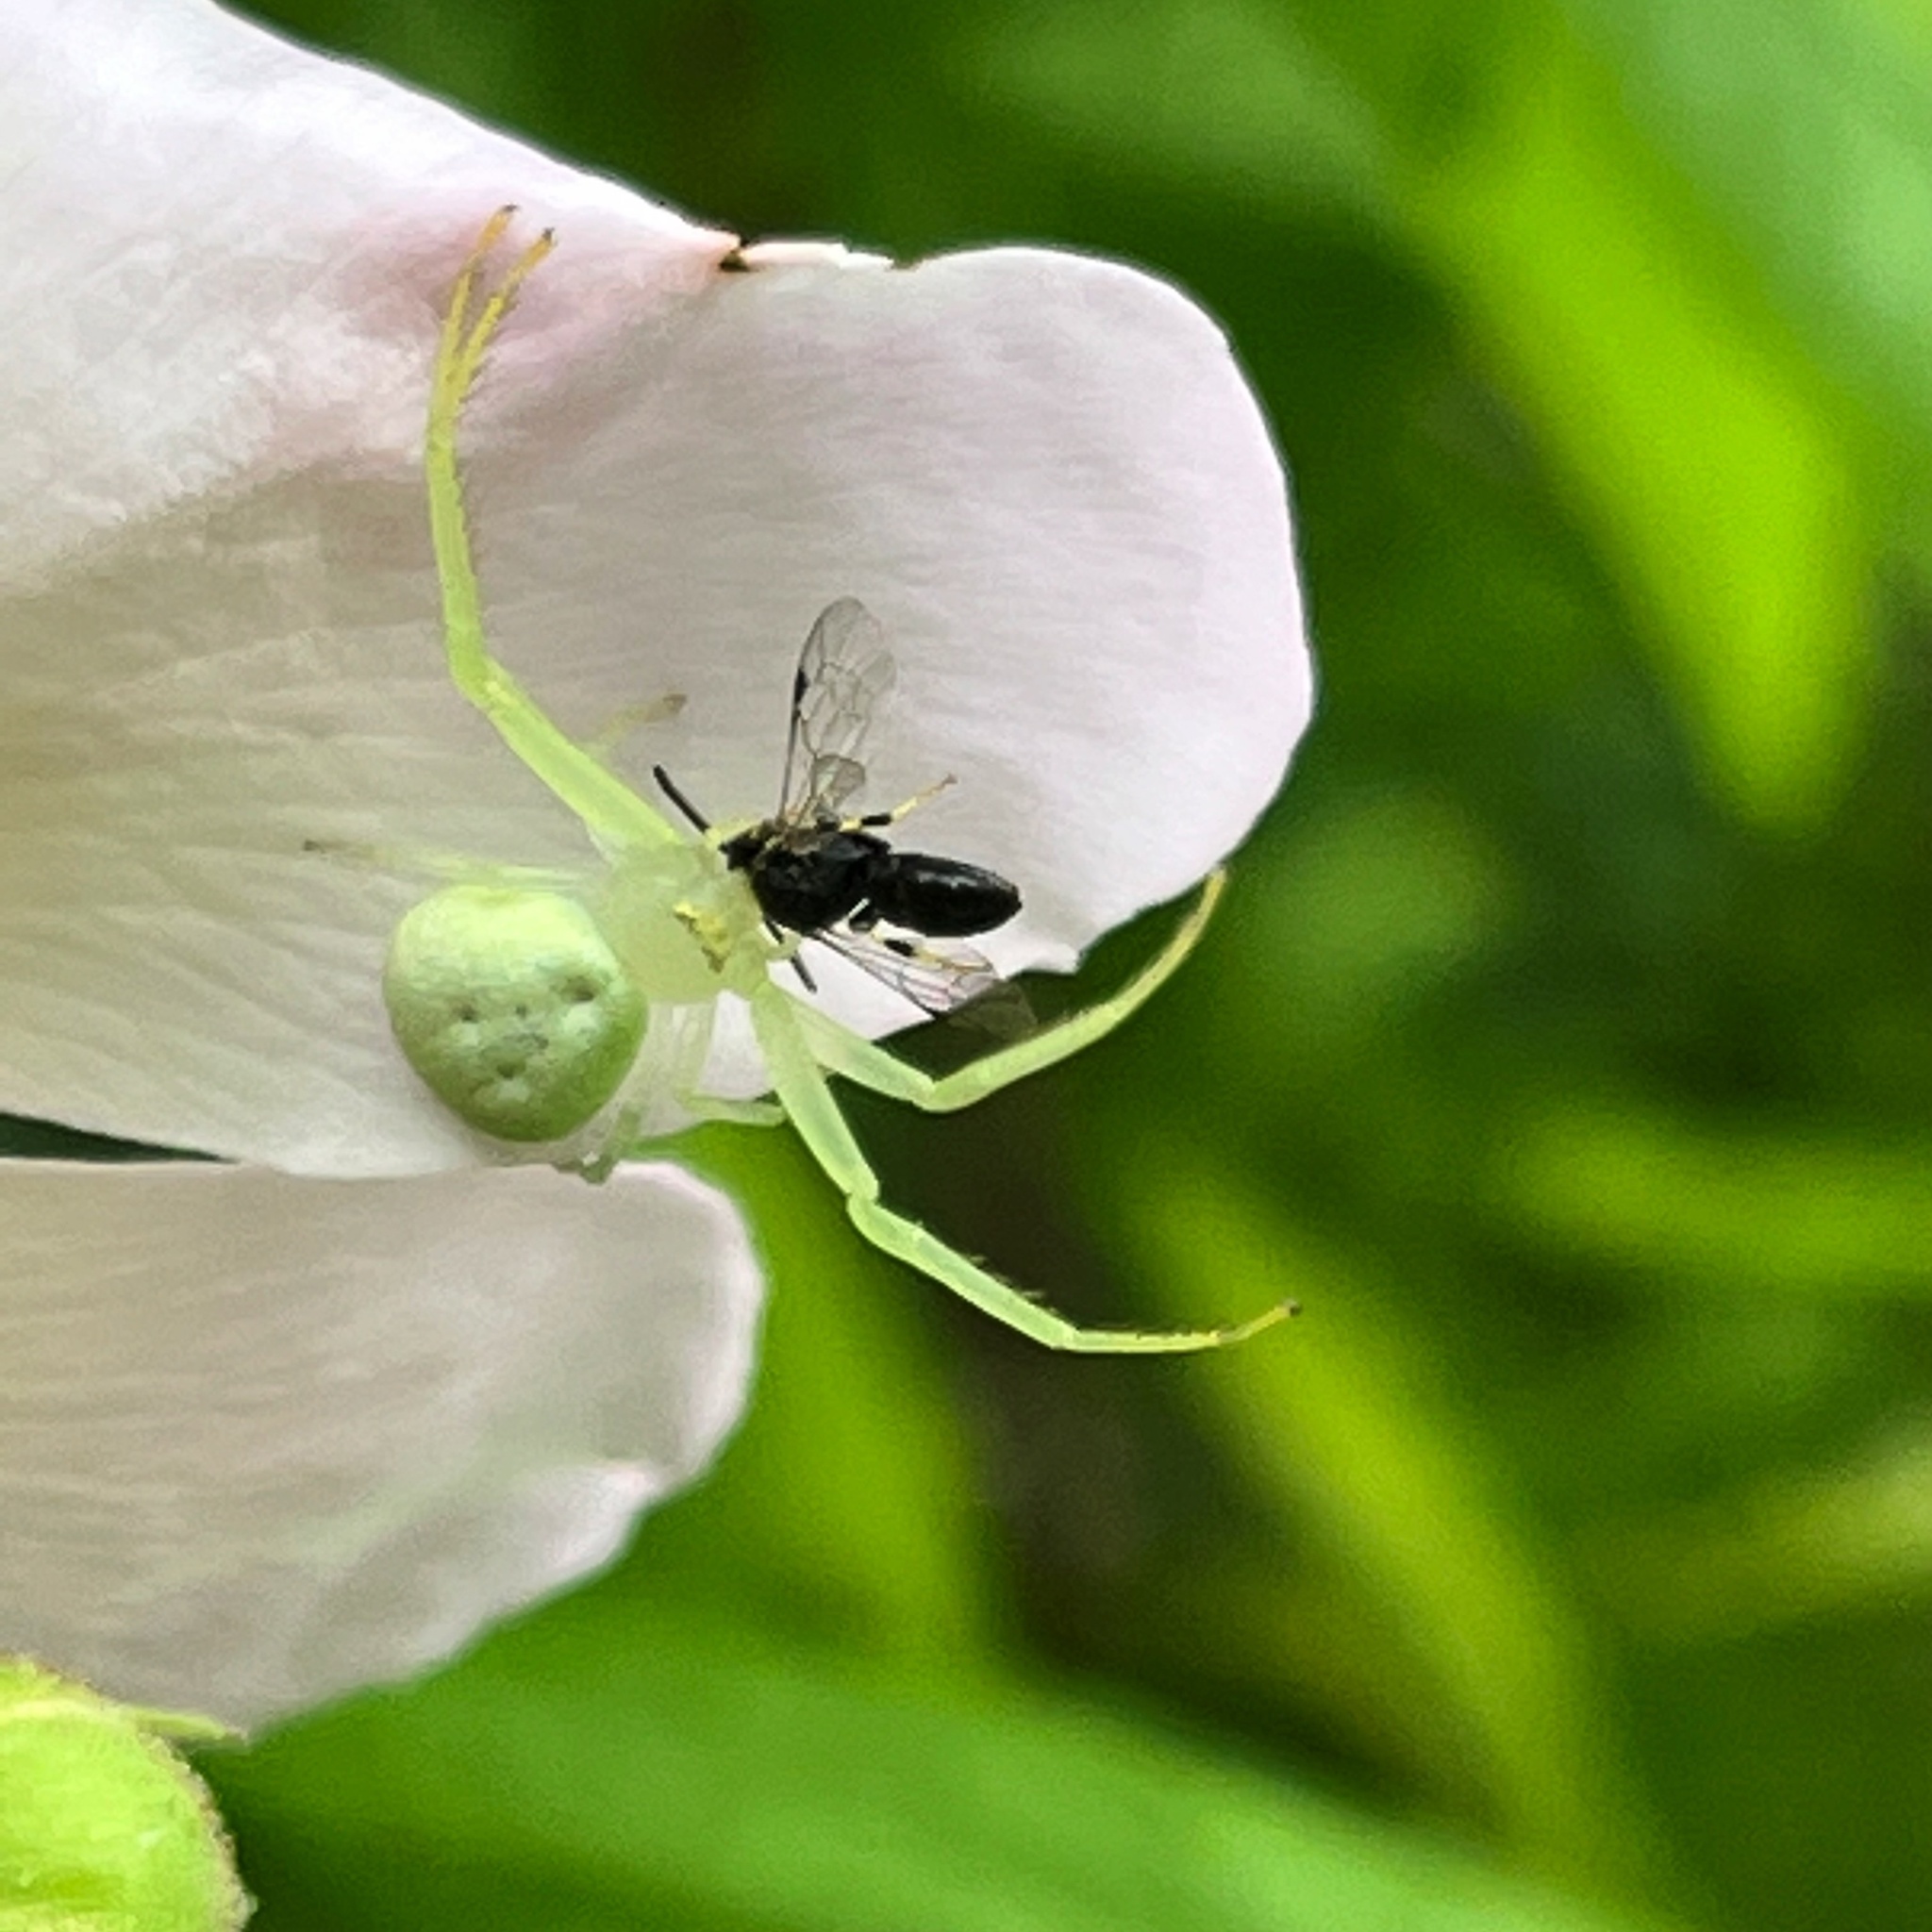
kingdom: Animalia
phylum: Arthropoda
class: Arachnida
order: Araneae
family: Thomisidae
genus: Misumessus
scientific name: Misumessus oblongus
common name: American green crab spider
